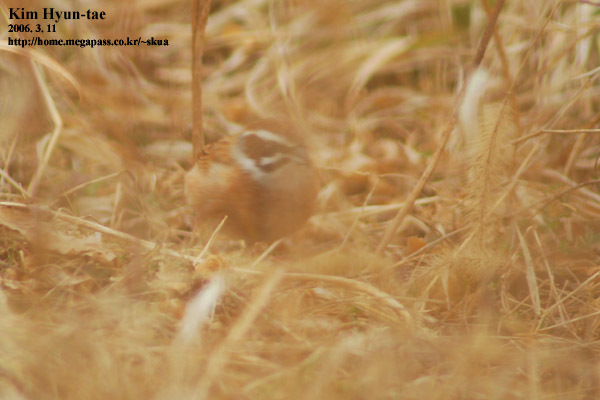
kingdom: Animalia
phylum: Chordata
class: Aves
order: Passeriformes
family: Emberizidae
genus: Emberiza
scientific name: Emberiza cioides
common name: Meadow bunting
